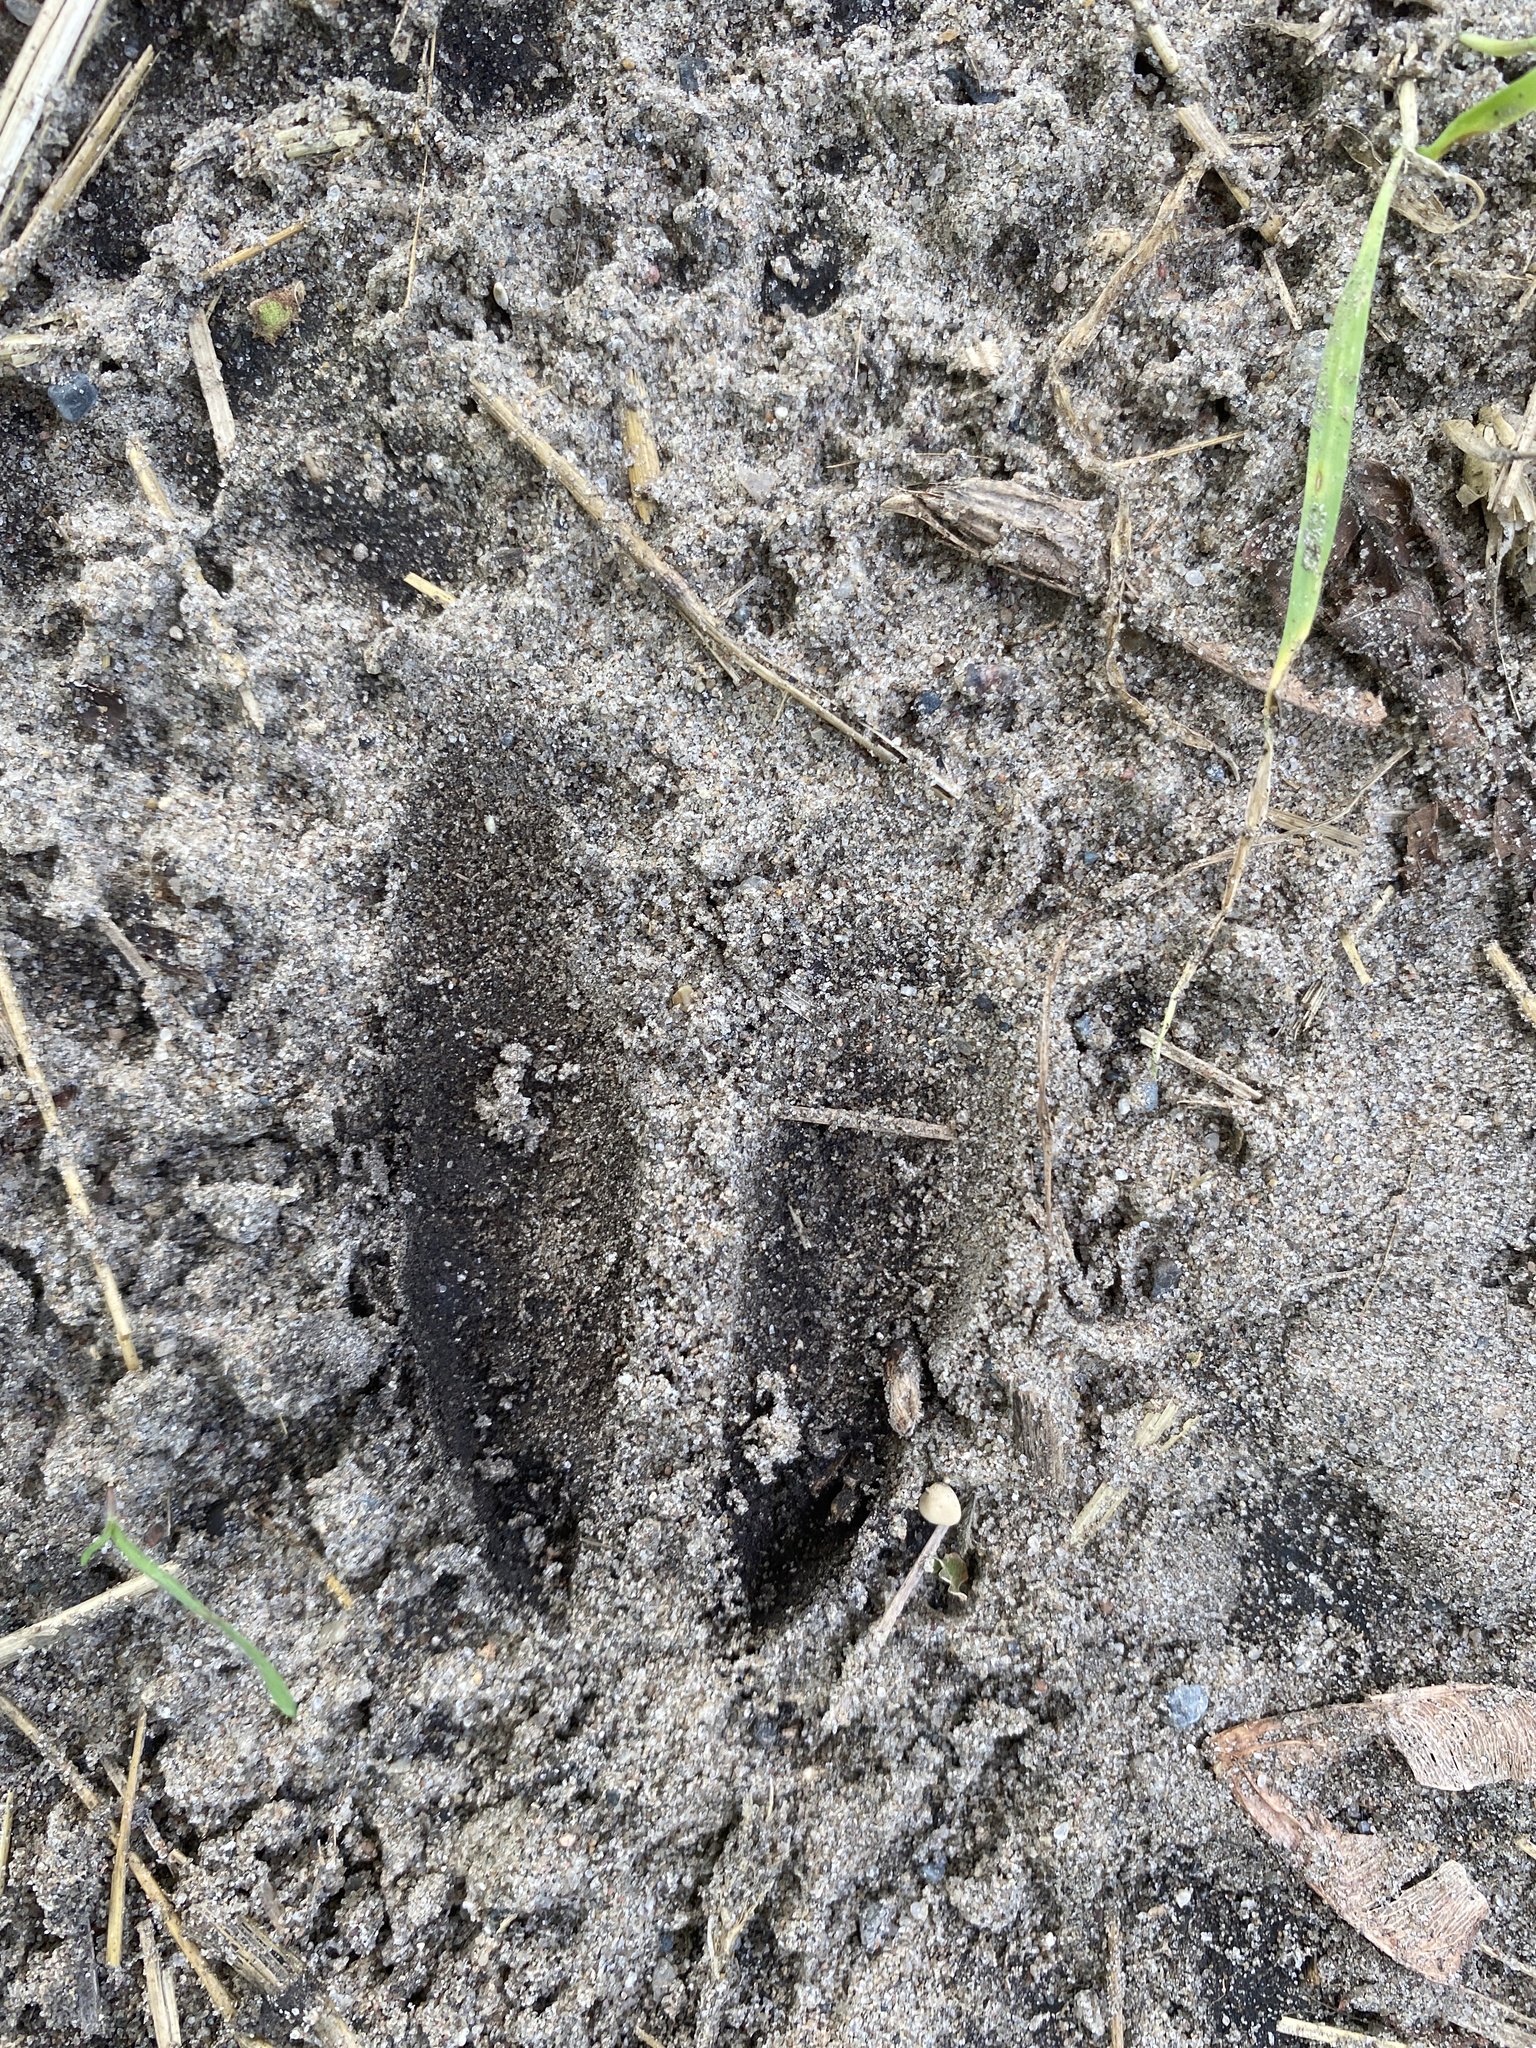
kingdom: Animalia
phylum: Chordata
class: Mammalia
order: Artiodactyla
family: Cervidae
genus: Odocoileus
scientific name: Odocoileus virginianus
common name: White-tailed deer
